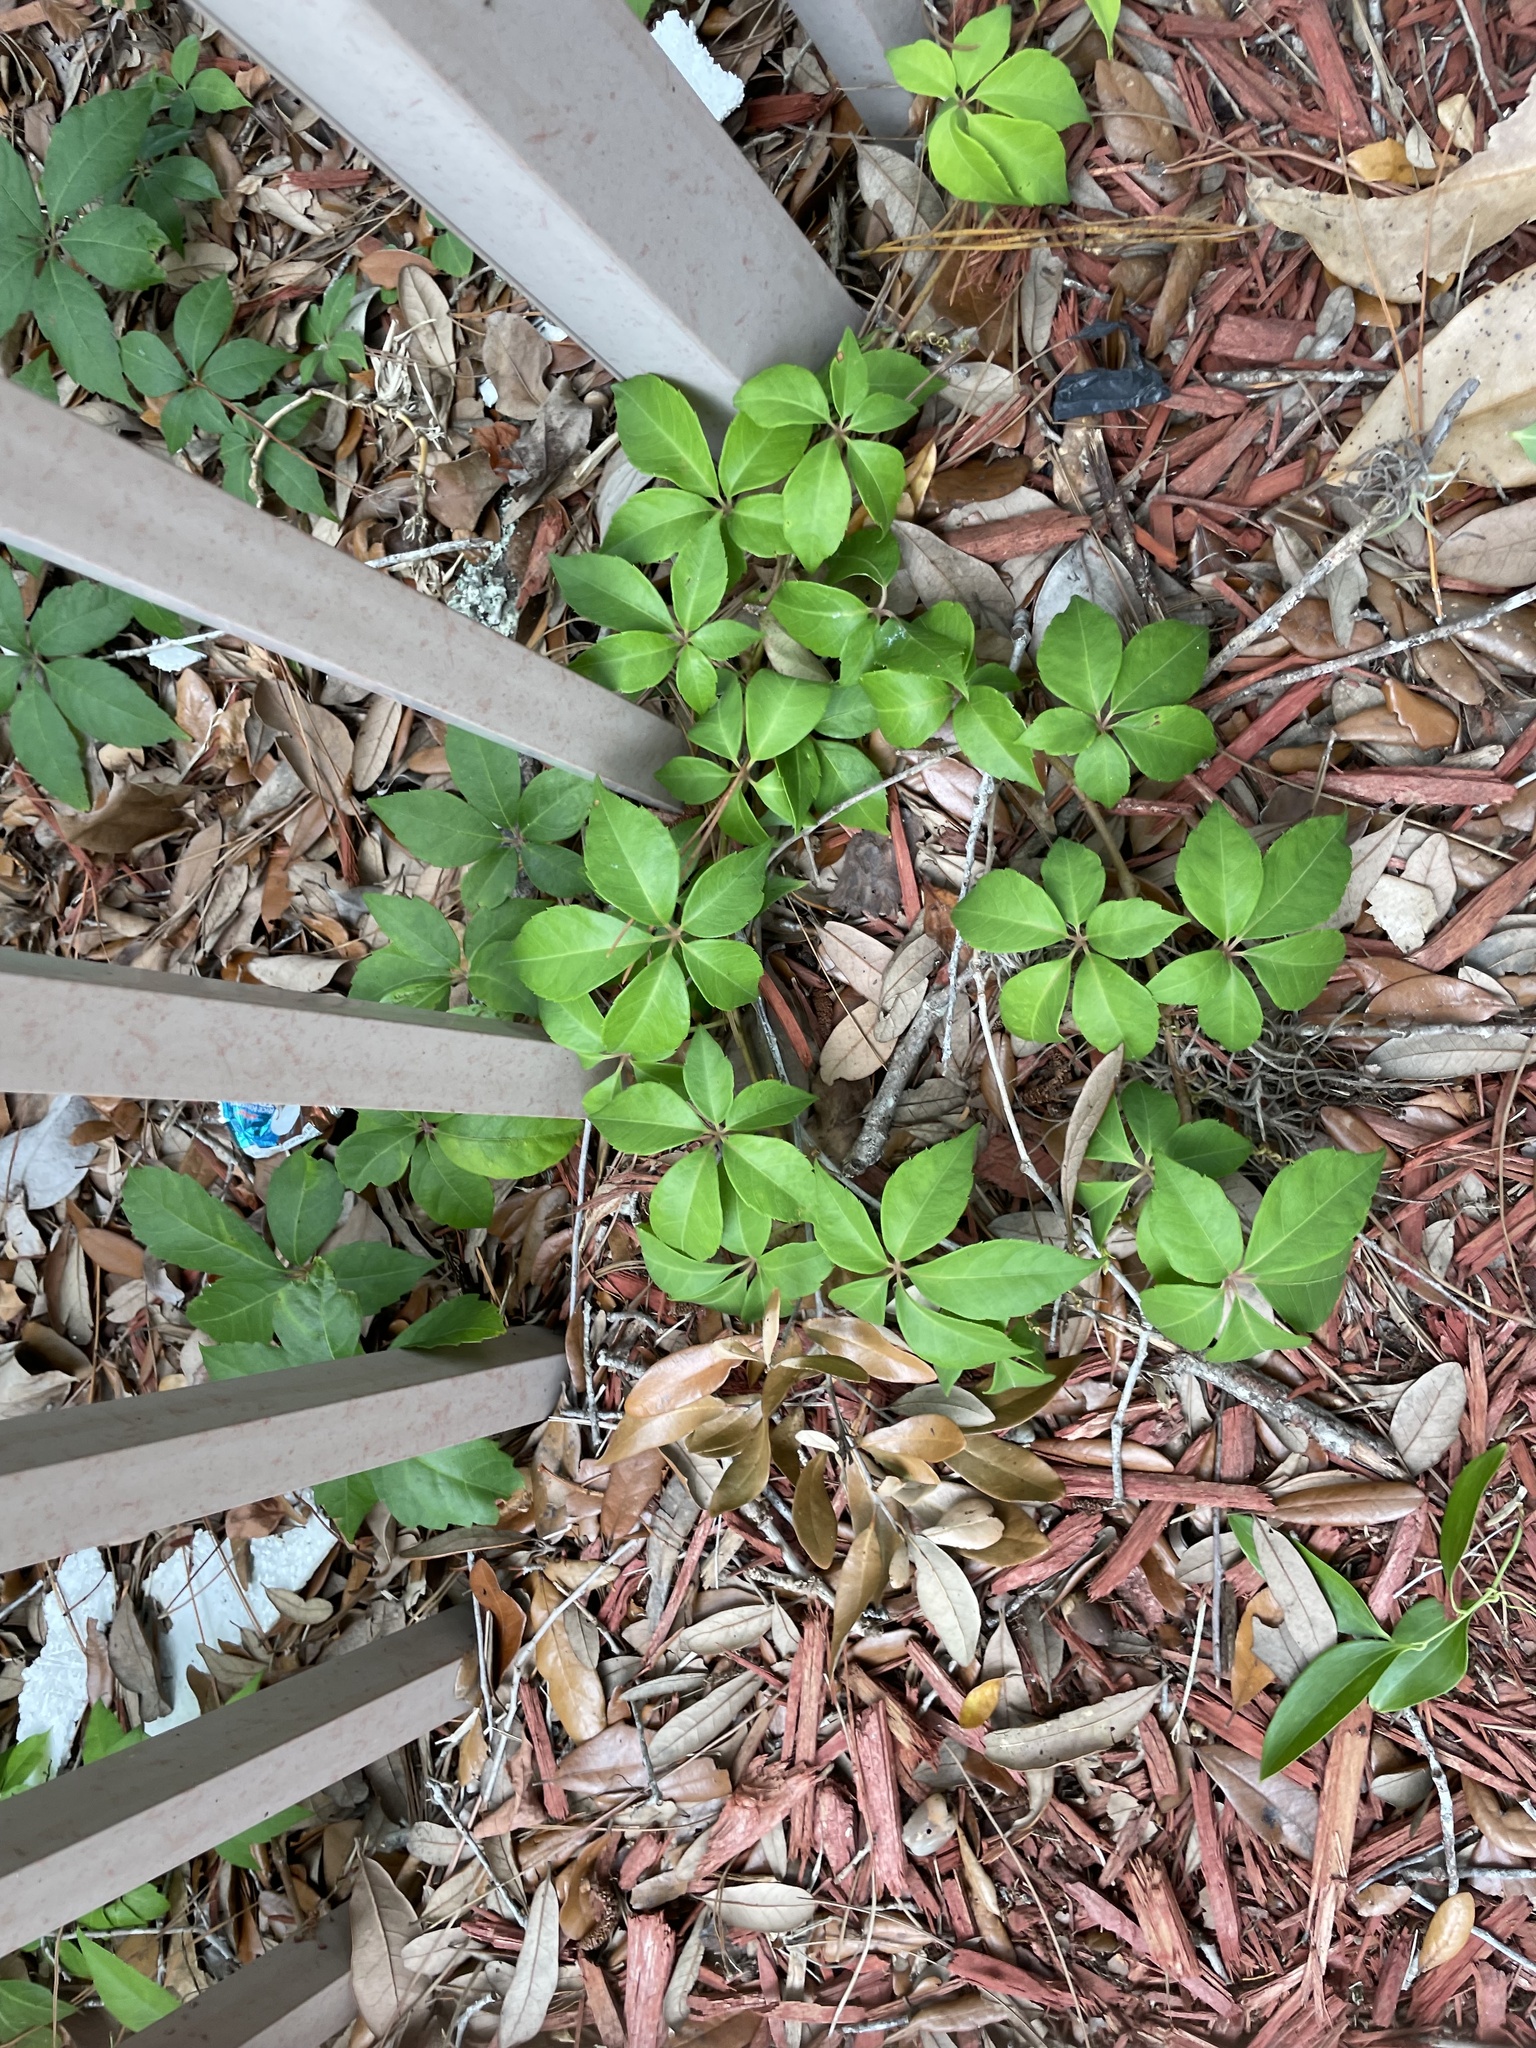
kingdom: Plantae
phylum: Tracheophyta
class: Magnoliopsida
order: Vitales
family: Vitaceae
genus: Parthenocissus
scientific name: Parthenocissus quinquefolia
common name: Virginia-creeper
